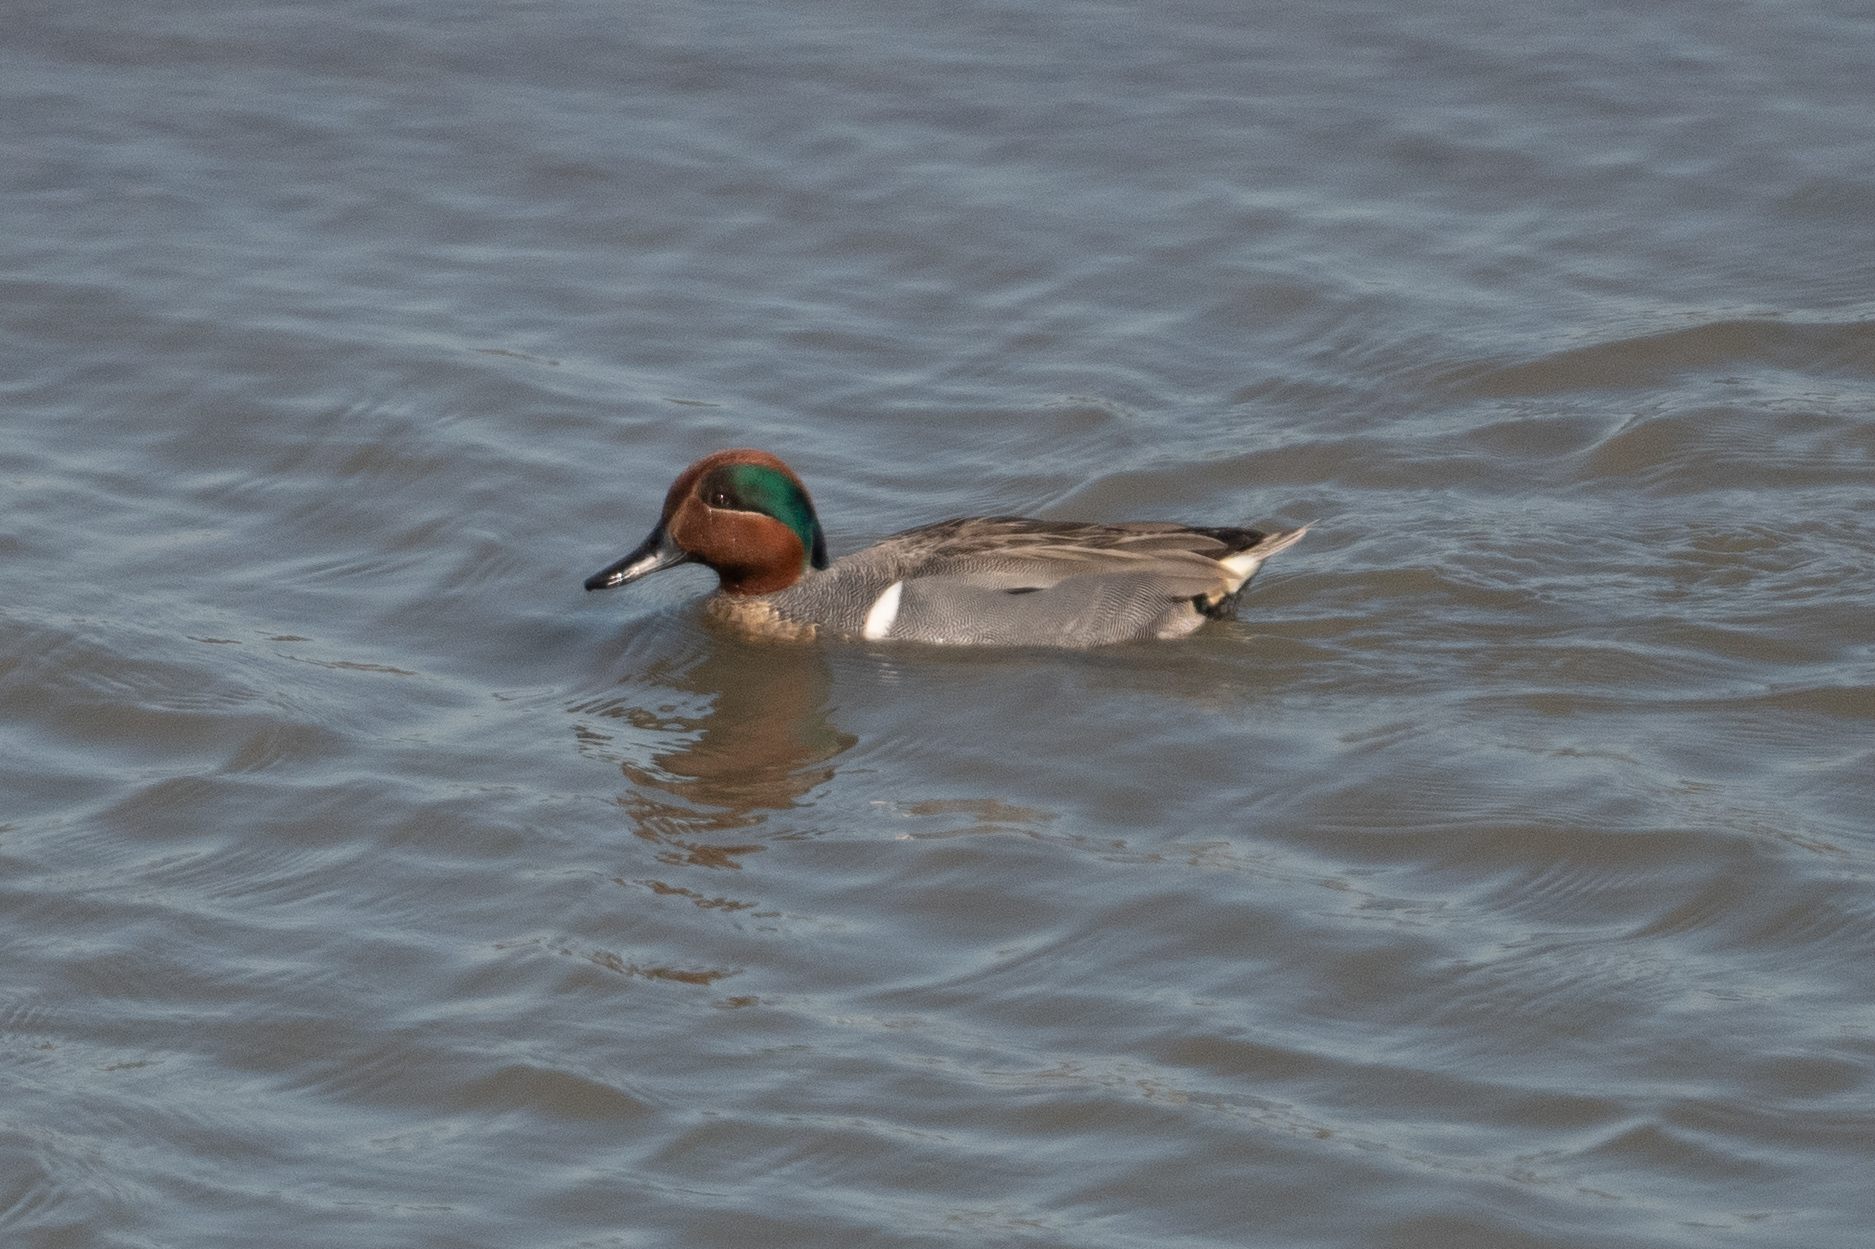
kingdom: Animalia
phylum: Chordata
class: Aves
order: Anseriformes
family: Anatidae
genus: Anas
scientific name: Anas crecca
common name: Eurasian teal
